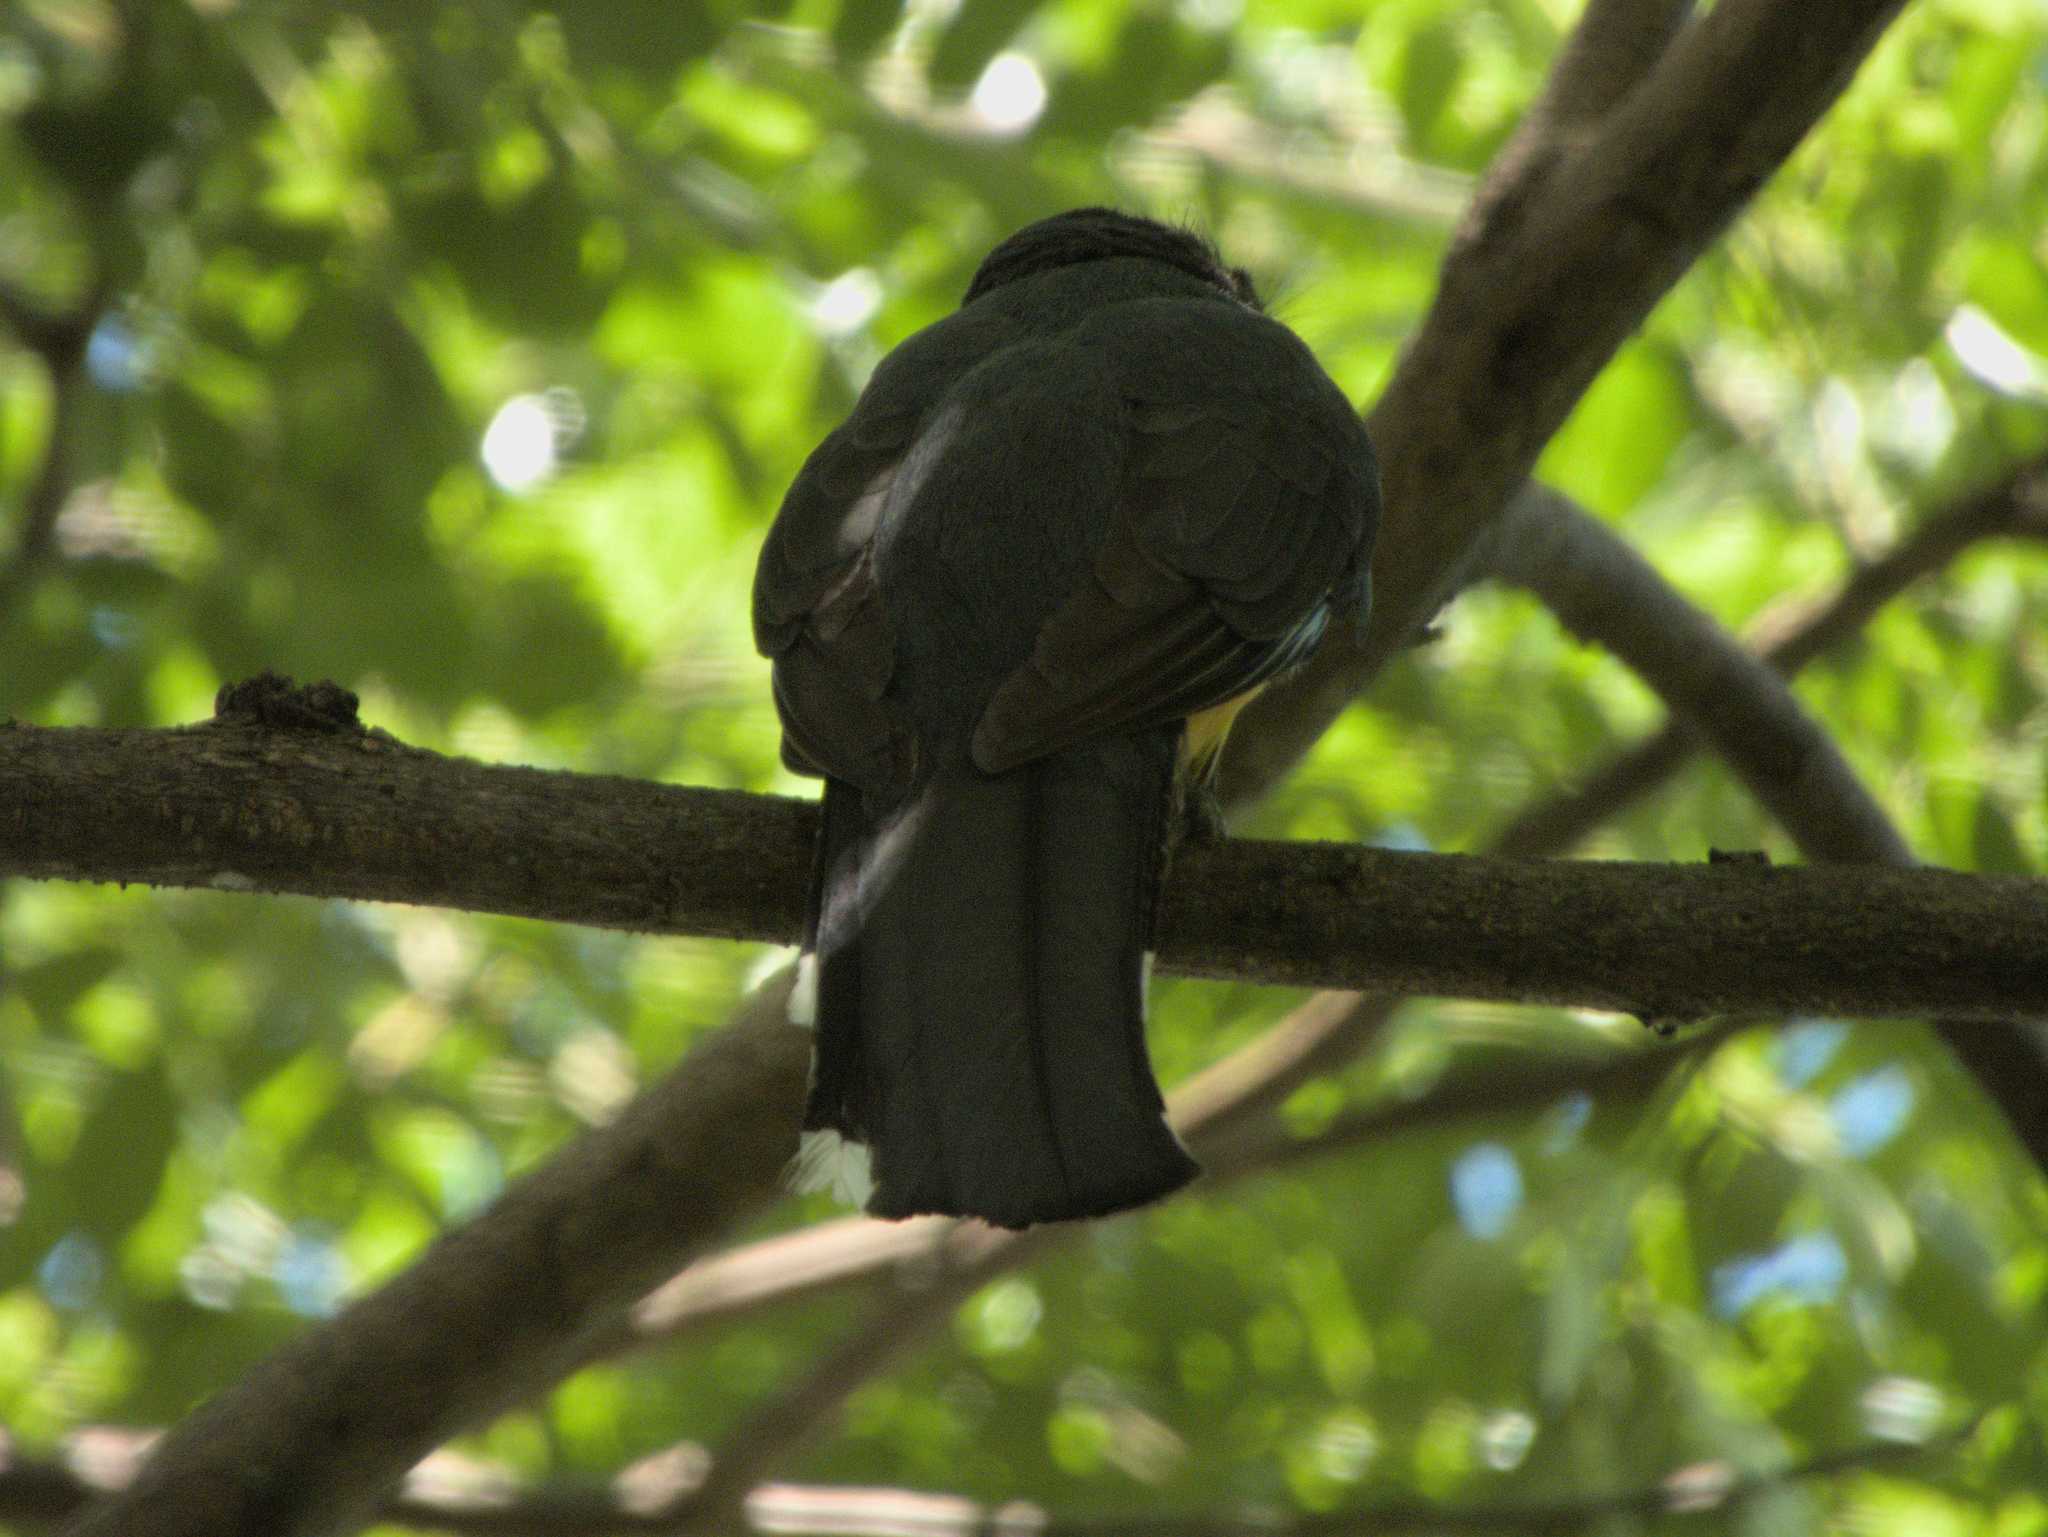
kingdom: Animalia
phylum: Chordata
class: Aves
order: Trogoniformes
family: Trogonidae
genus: Trogon
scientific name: Trogon melanocephalus
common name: Black-headed trogon
